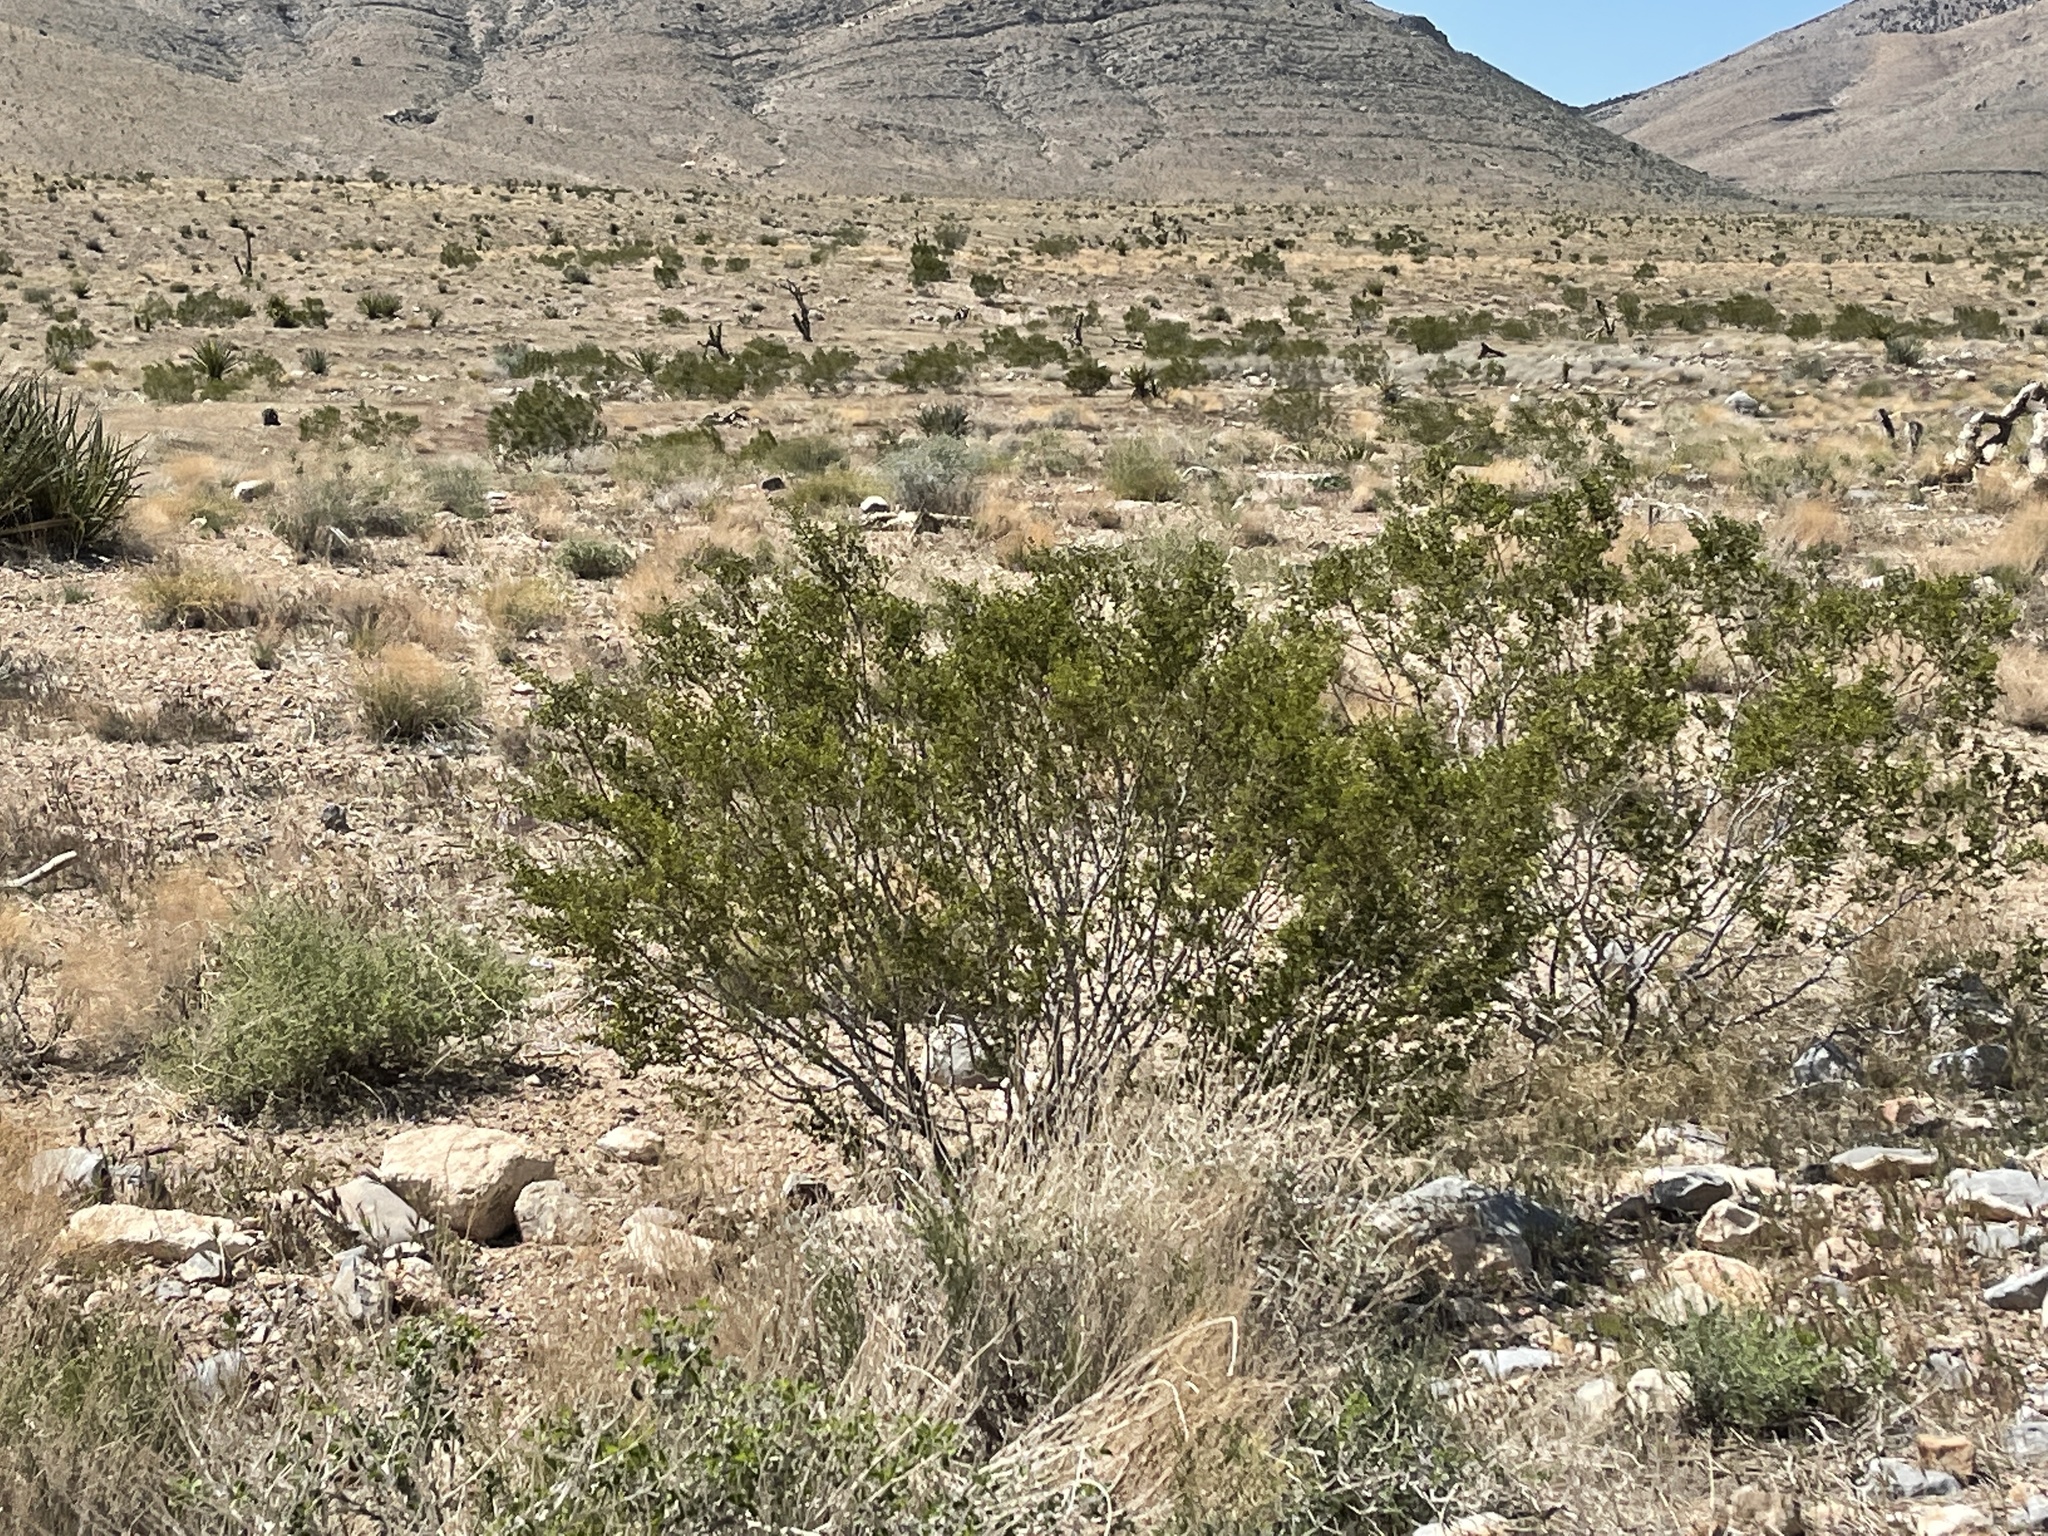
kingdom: Plantae
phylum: Tracheophyta
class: Magnoliopsida
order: Zygophyllales
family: Zygophyllaceae
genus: Larrea
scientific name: Larrea tridentata
